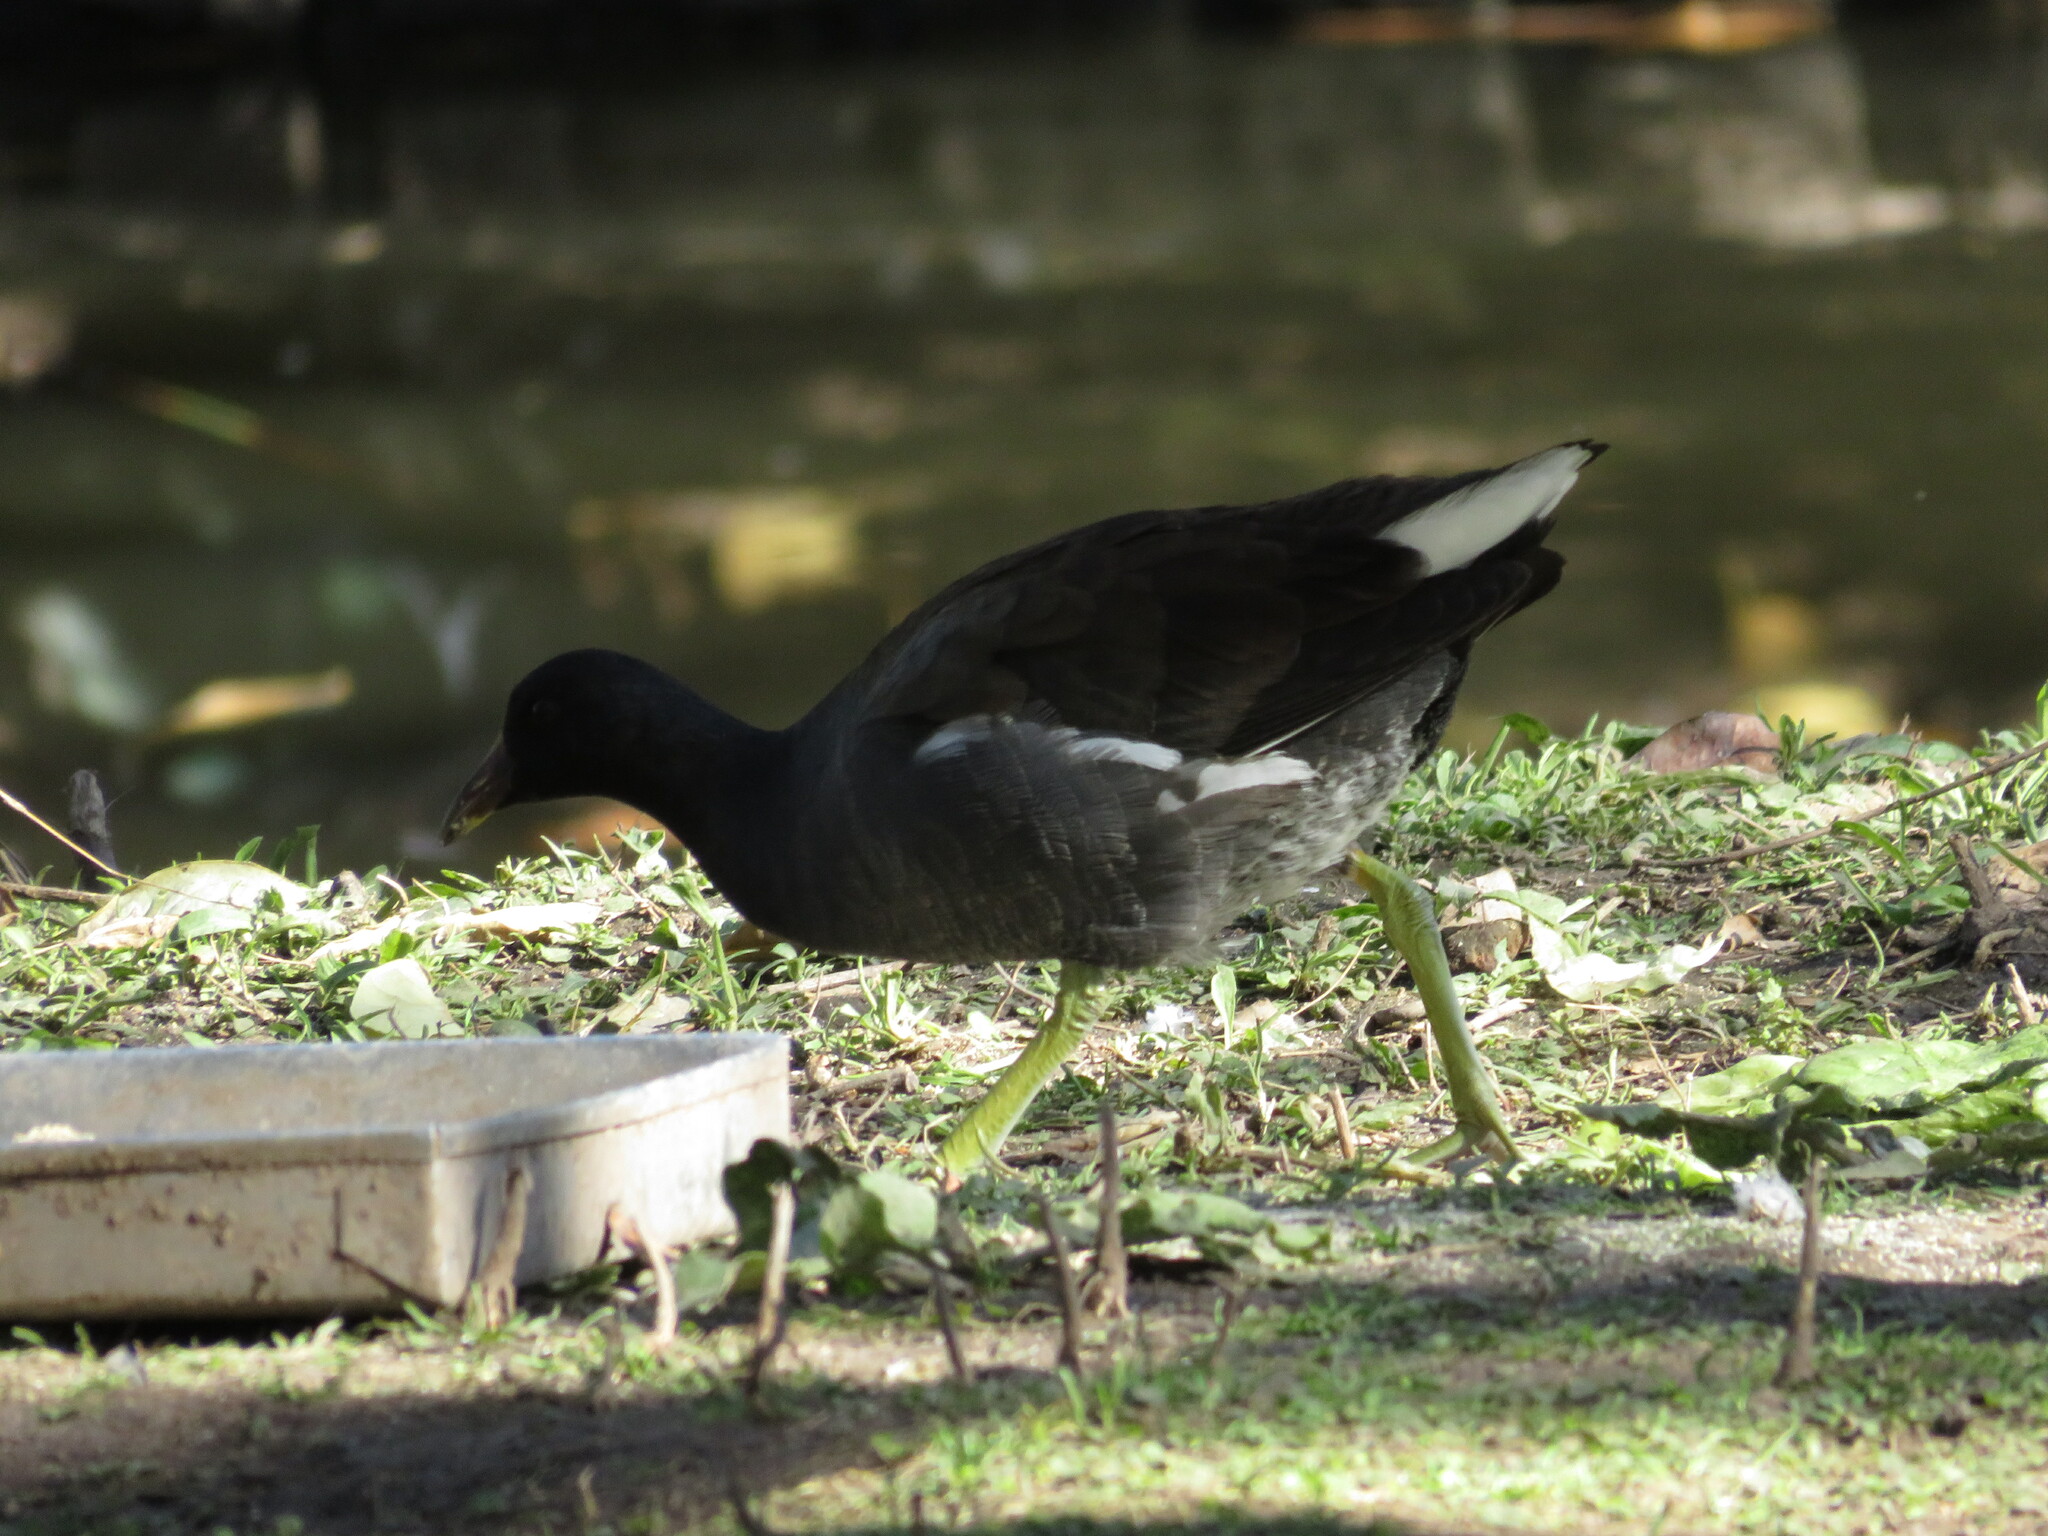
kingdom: Animalia
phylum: Chordata
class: Aves
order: Gruiformes
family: Rallidae
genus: Gallinula
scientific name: Gallinula chloropus
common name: Common moorhen
